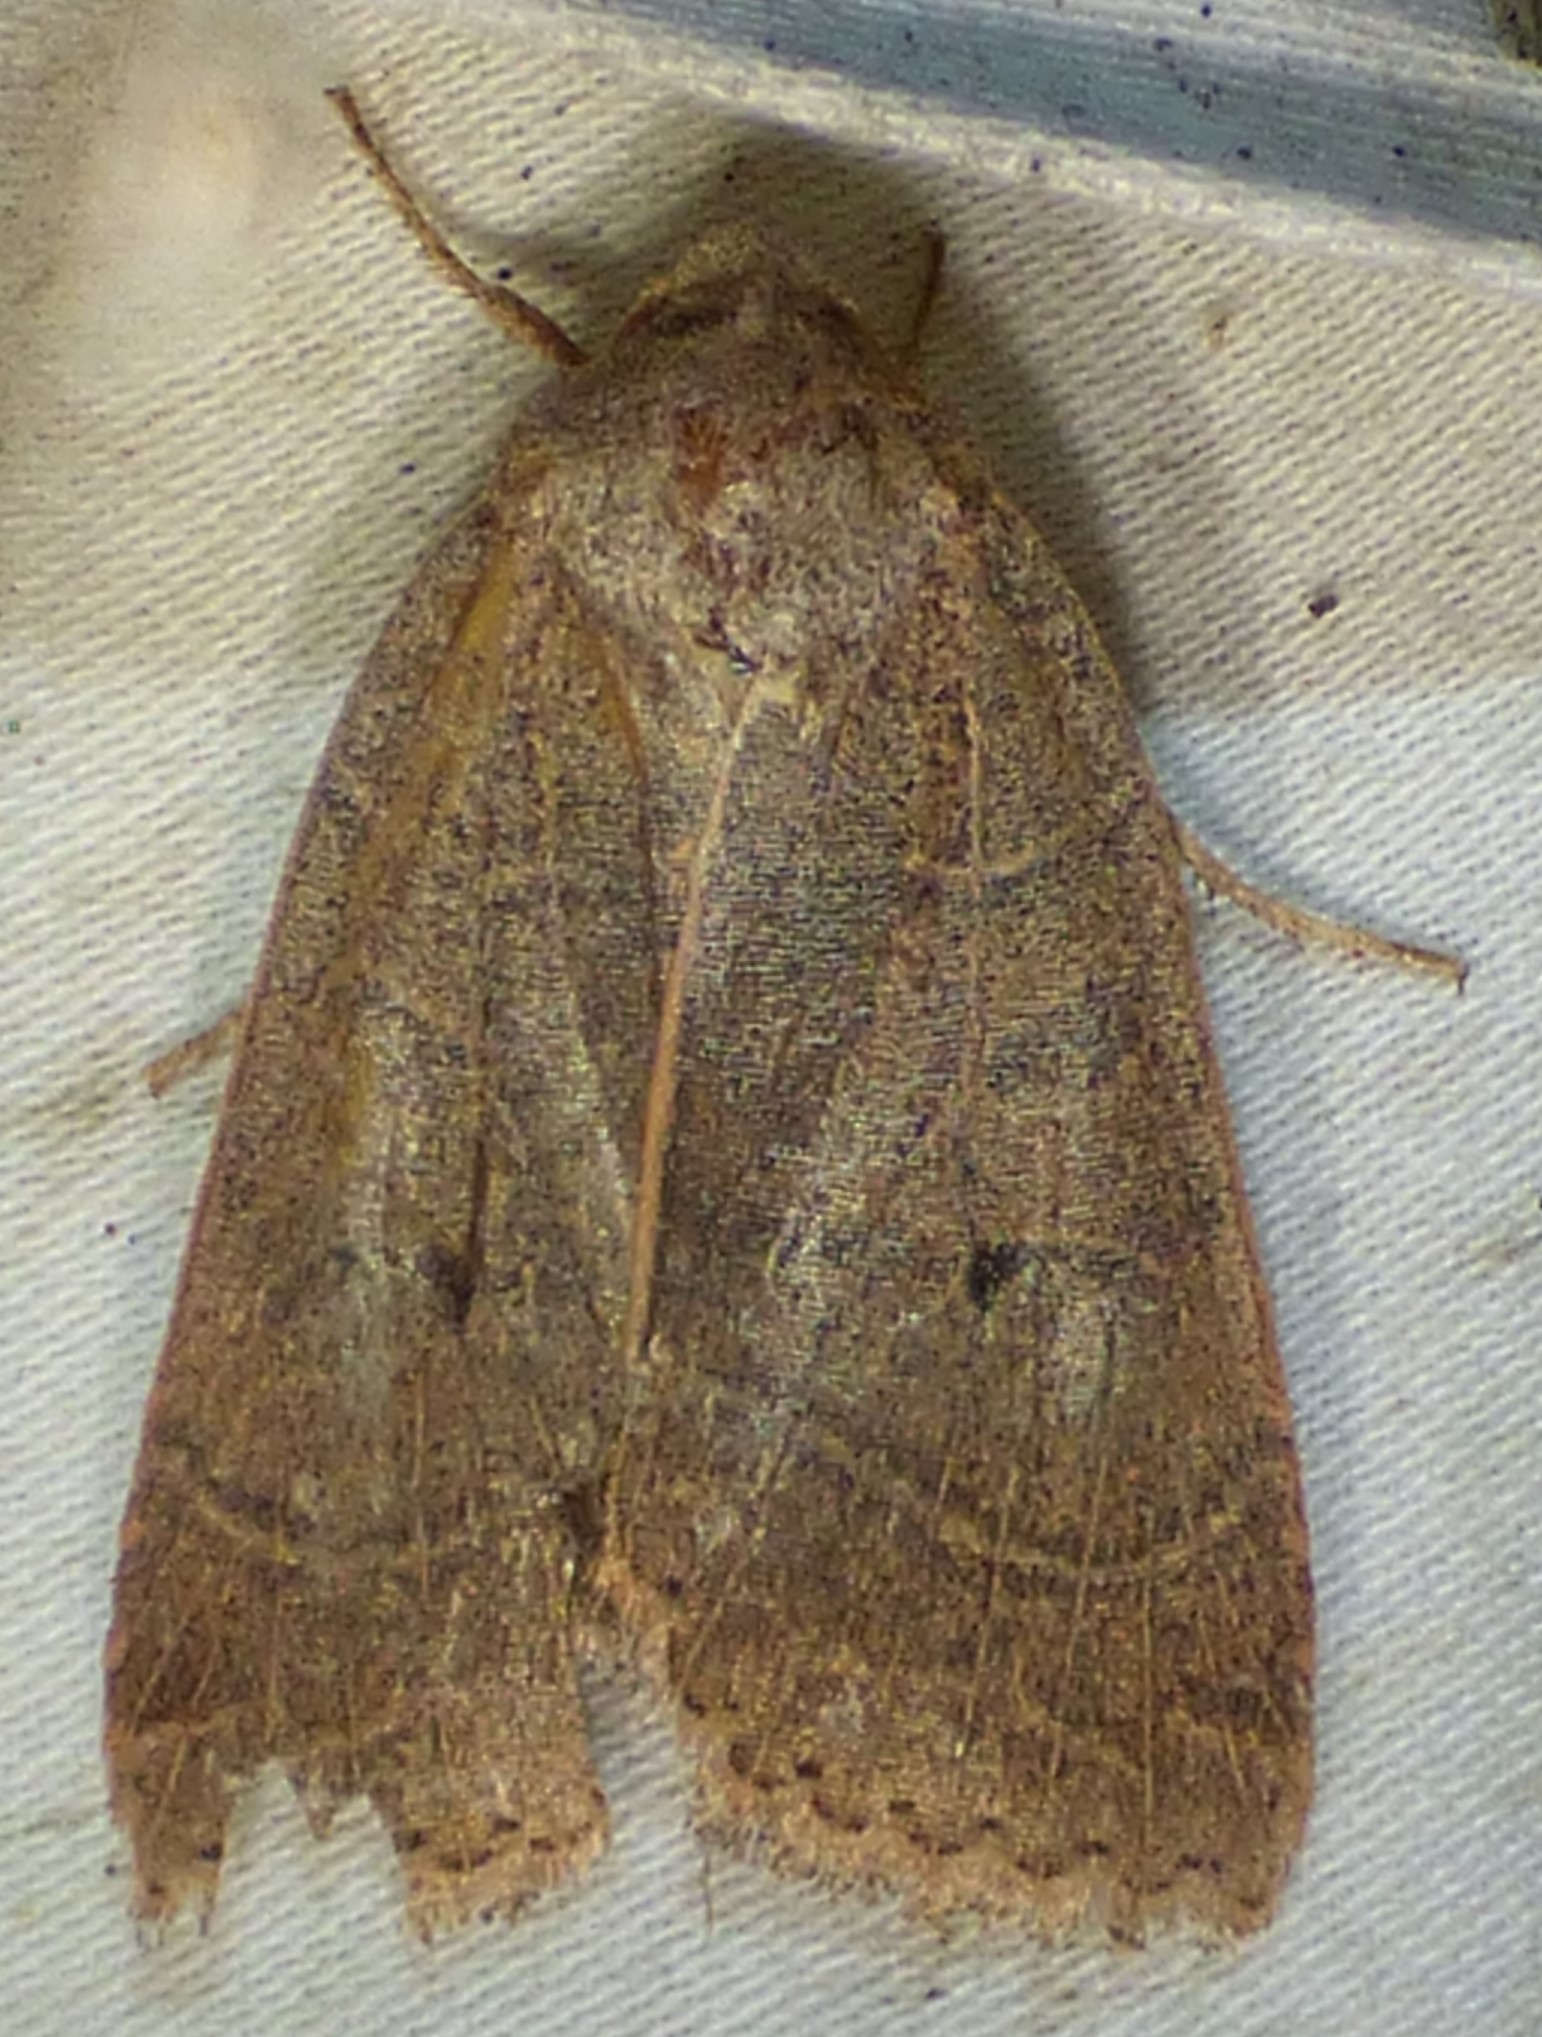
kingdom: Animalia
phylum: Arthropoda
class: Insecta
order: Lepidoptera
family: Noctuidae
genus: Chaetaglaea
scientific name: Chaetaglaea sericea
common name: Silky sallow
